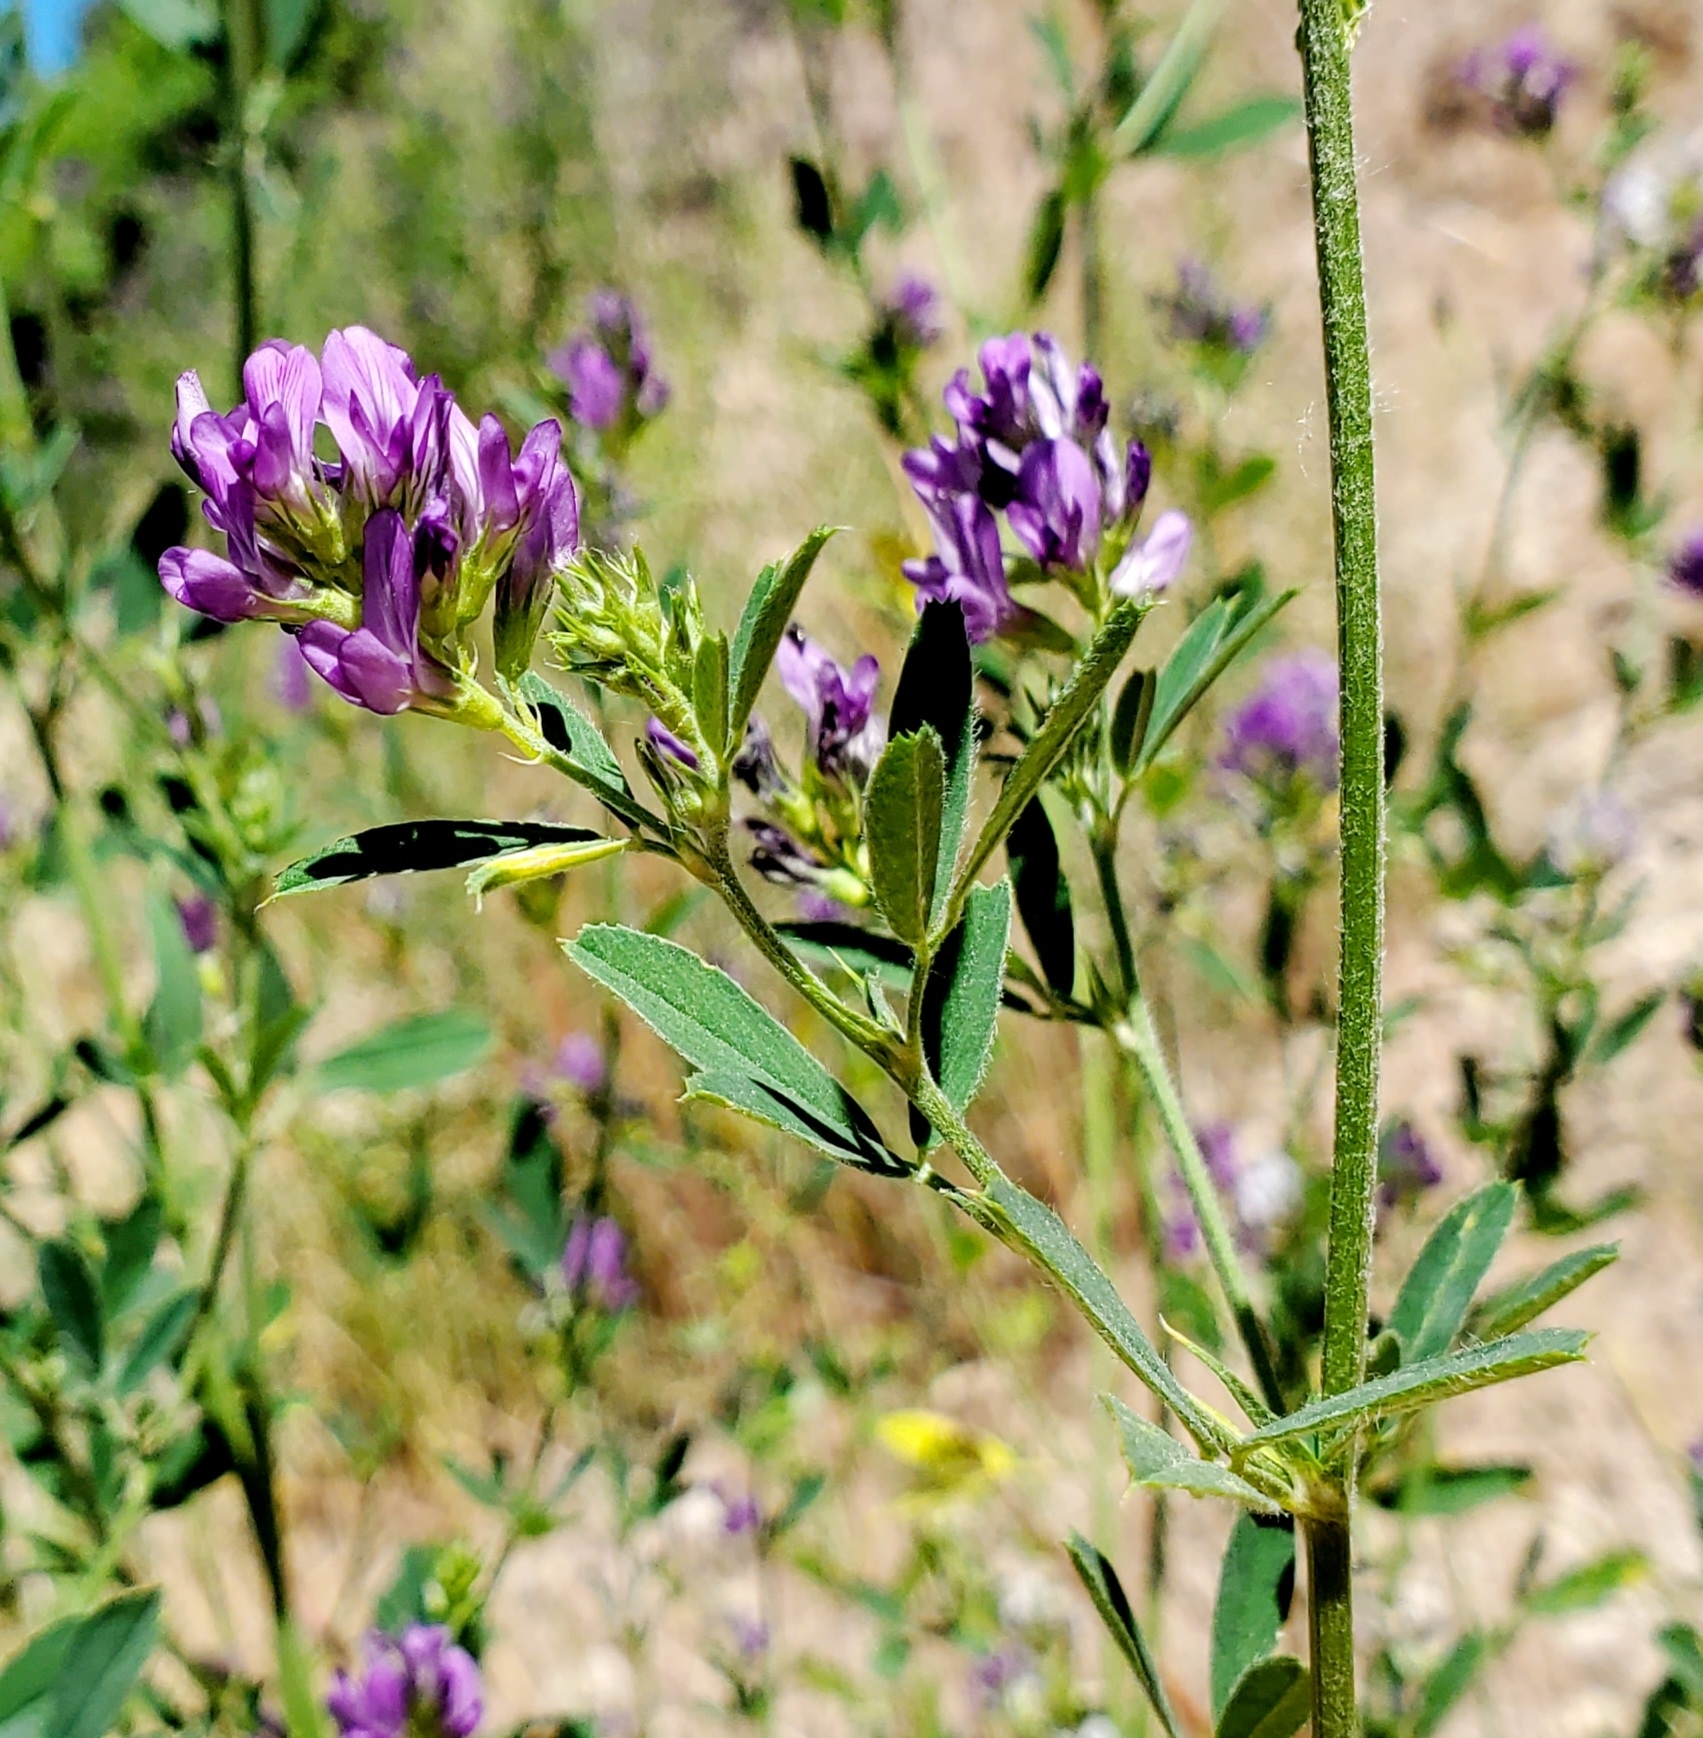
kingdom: Plantae
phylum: Tracheophyta
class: Magnoliopsida
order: Fabales
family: Fabaceae
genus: Medicago
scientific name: Medicago sativa
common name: Alfalfa
